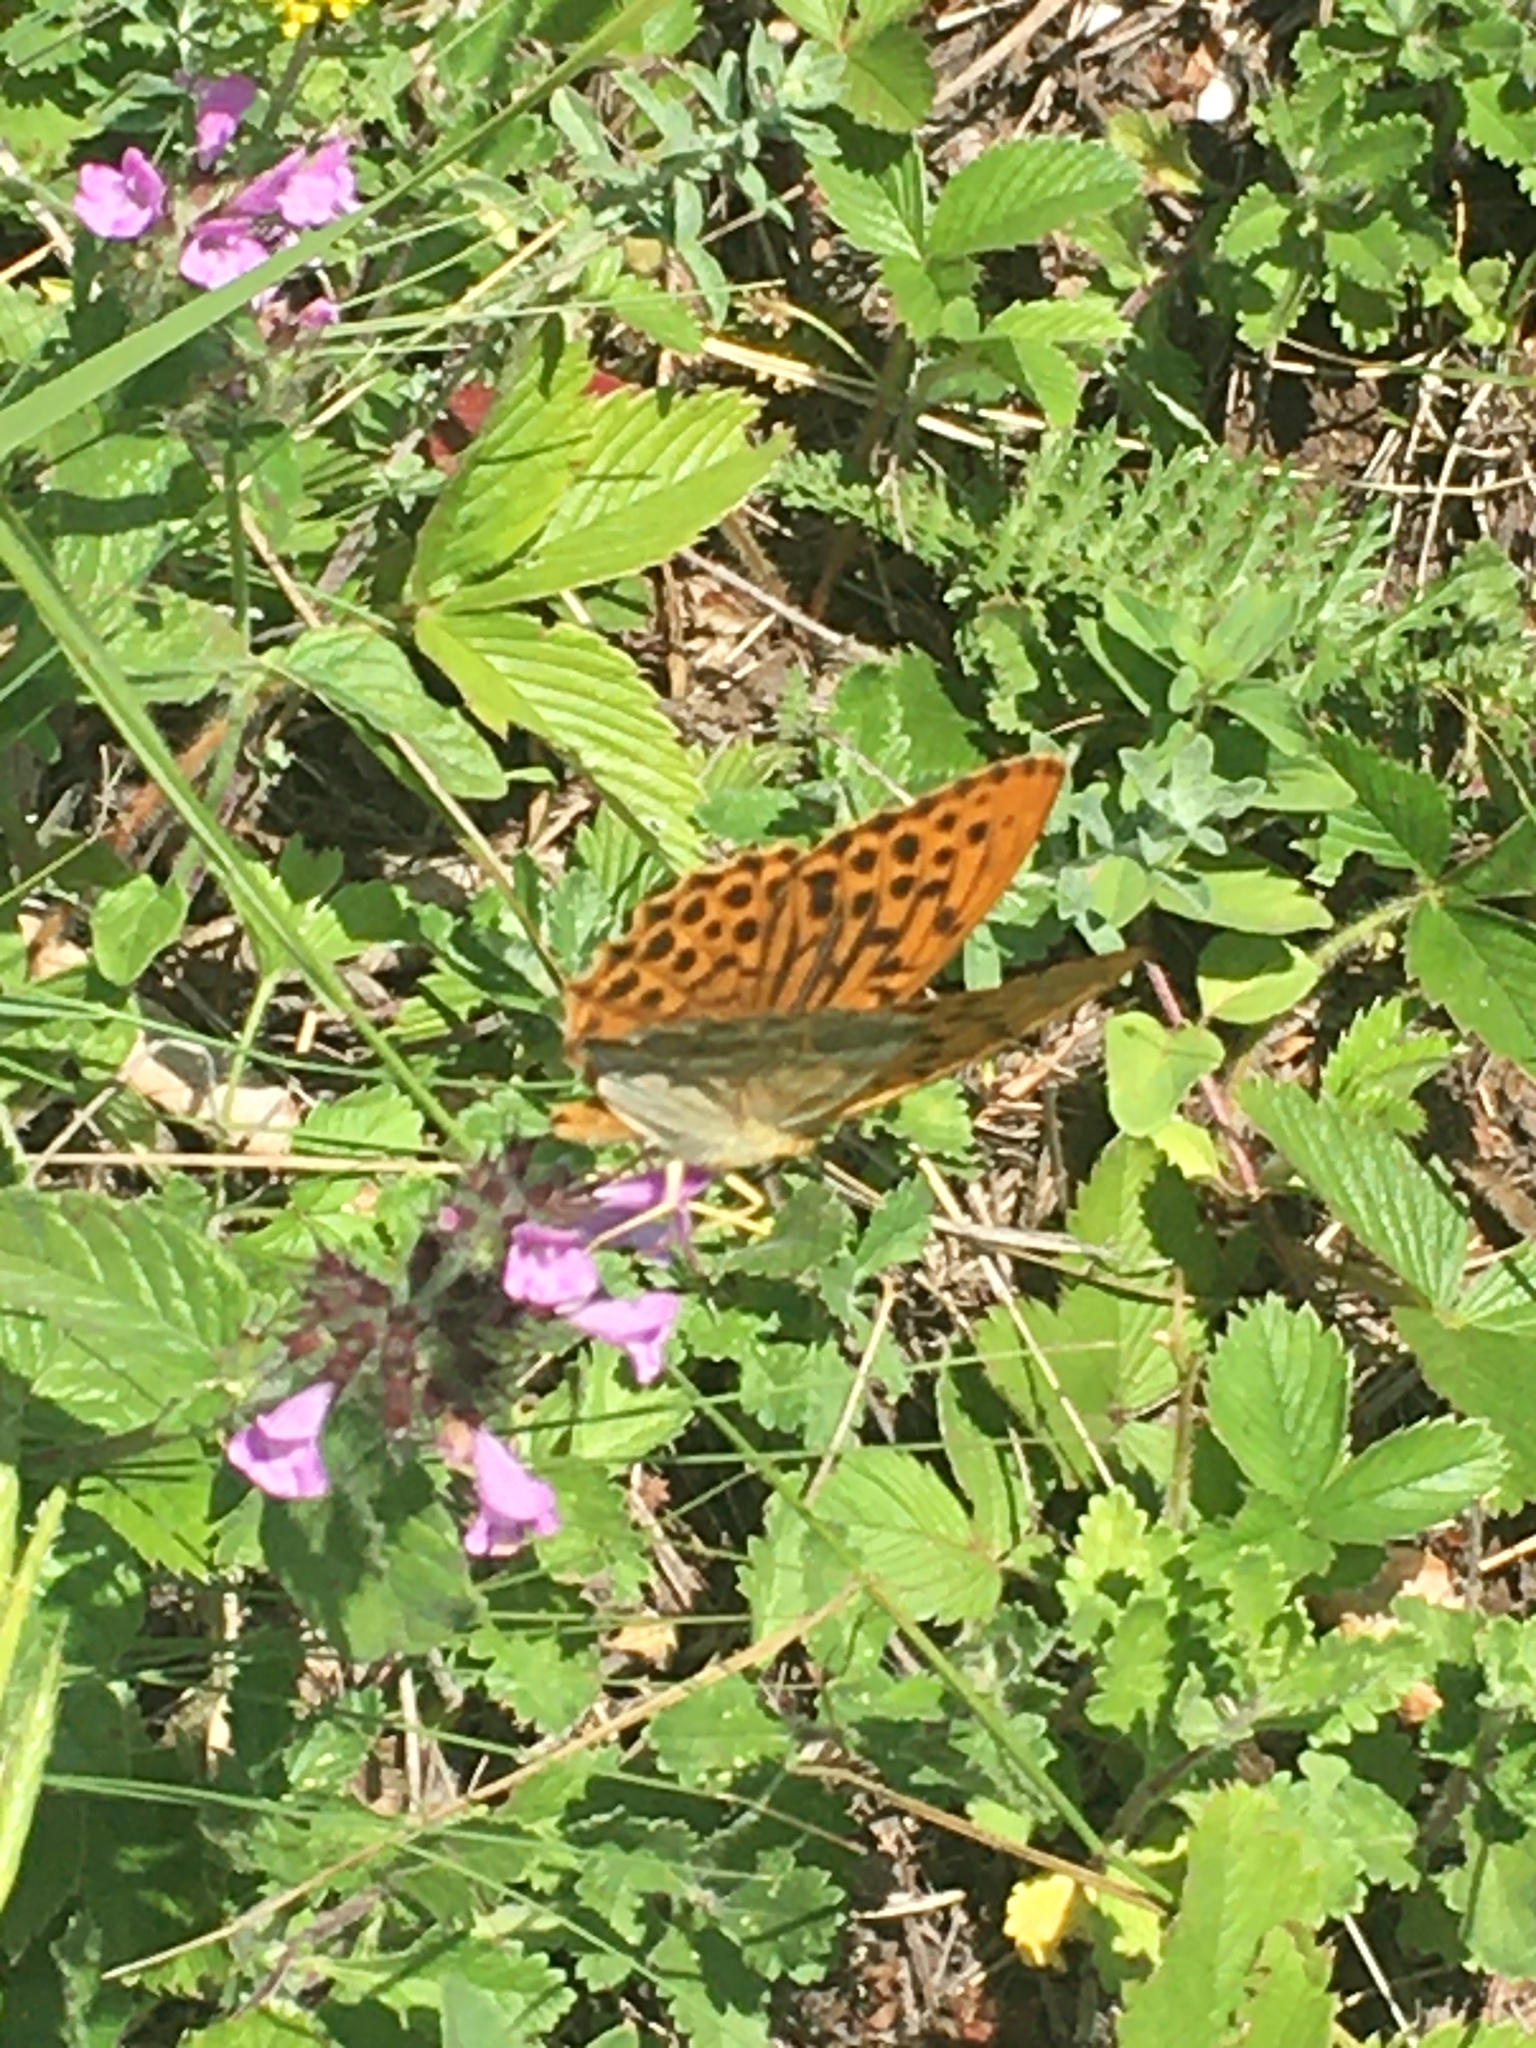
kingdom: Animalia
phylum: Arthropoda
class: Insecta
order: Lepidoptera
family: Nymphalidae
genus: Argynnis
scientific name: Argynnis paphia
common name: Silver-washed fritillary
